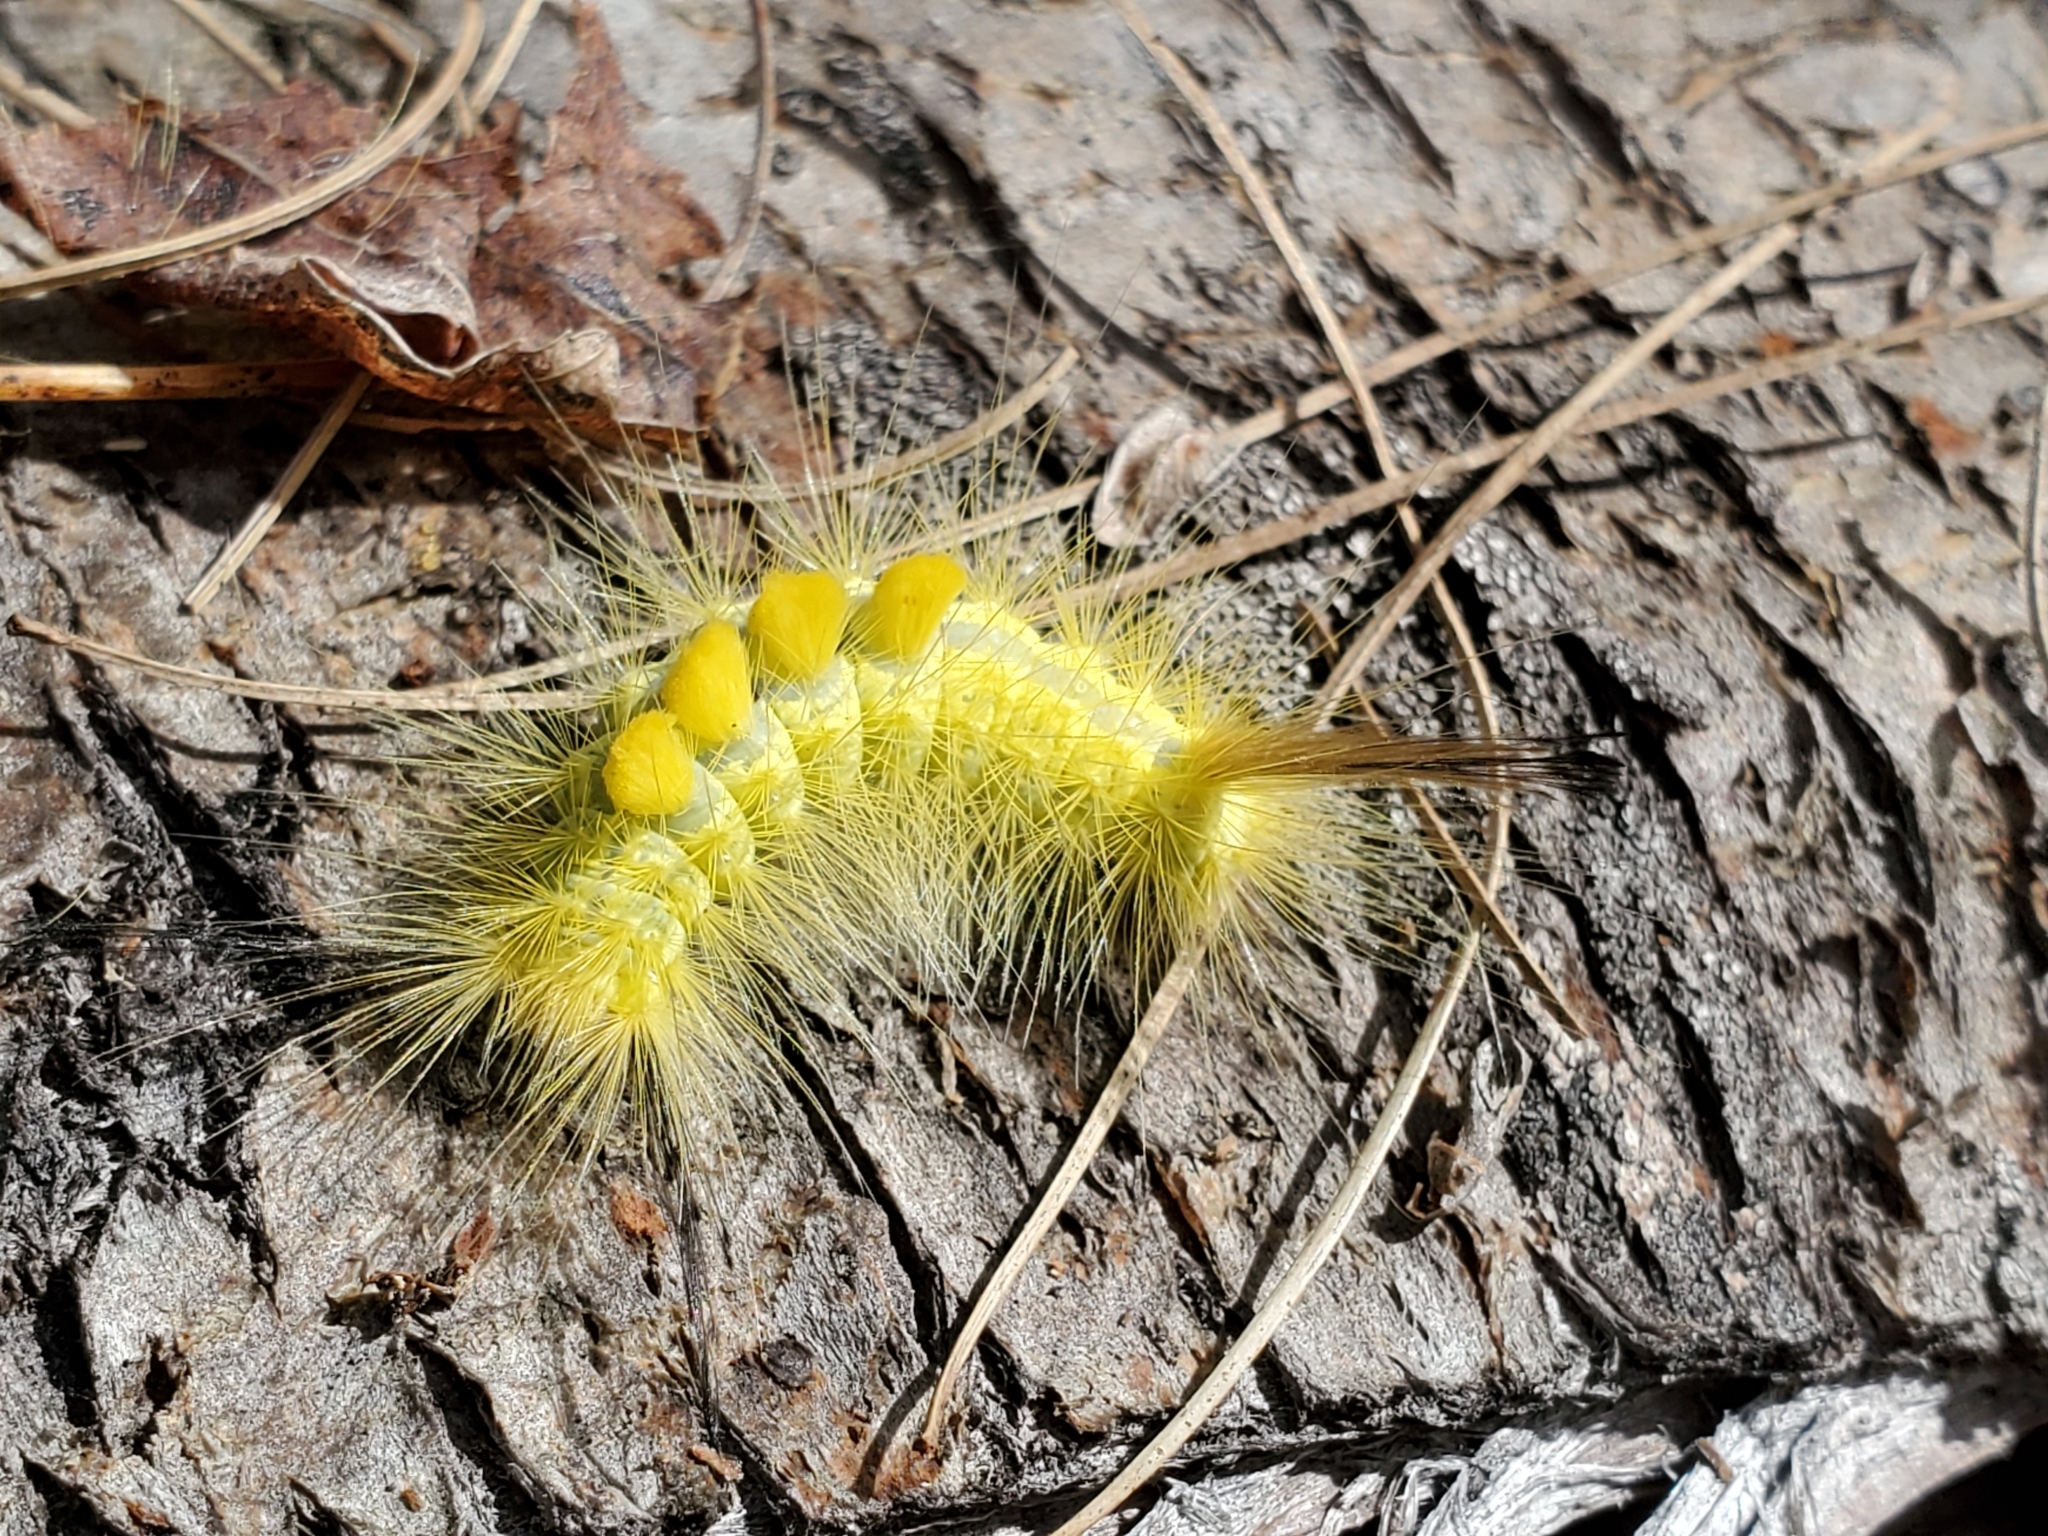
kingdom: Animalia
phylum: Arthropoda
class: Insecta
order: Lepidoptera
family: Erebidae
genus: Orgyia
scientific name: Orgyia definita
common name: Definite tussock moth
